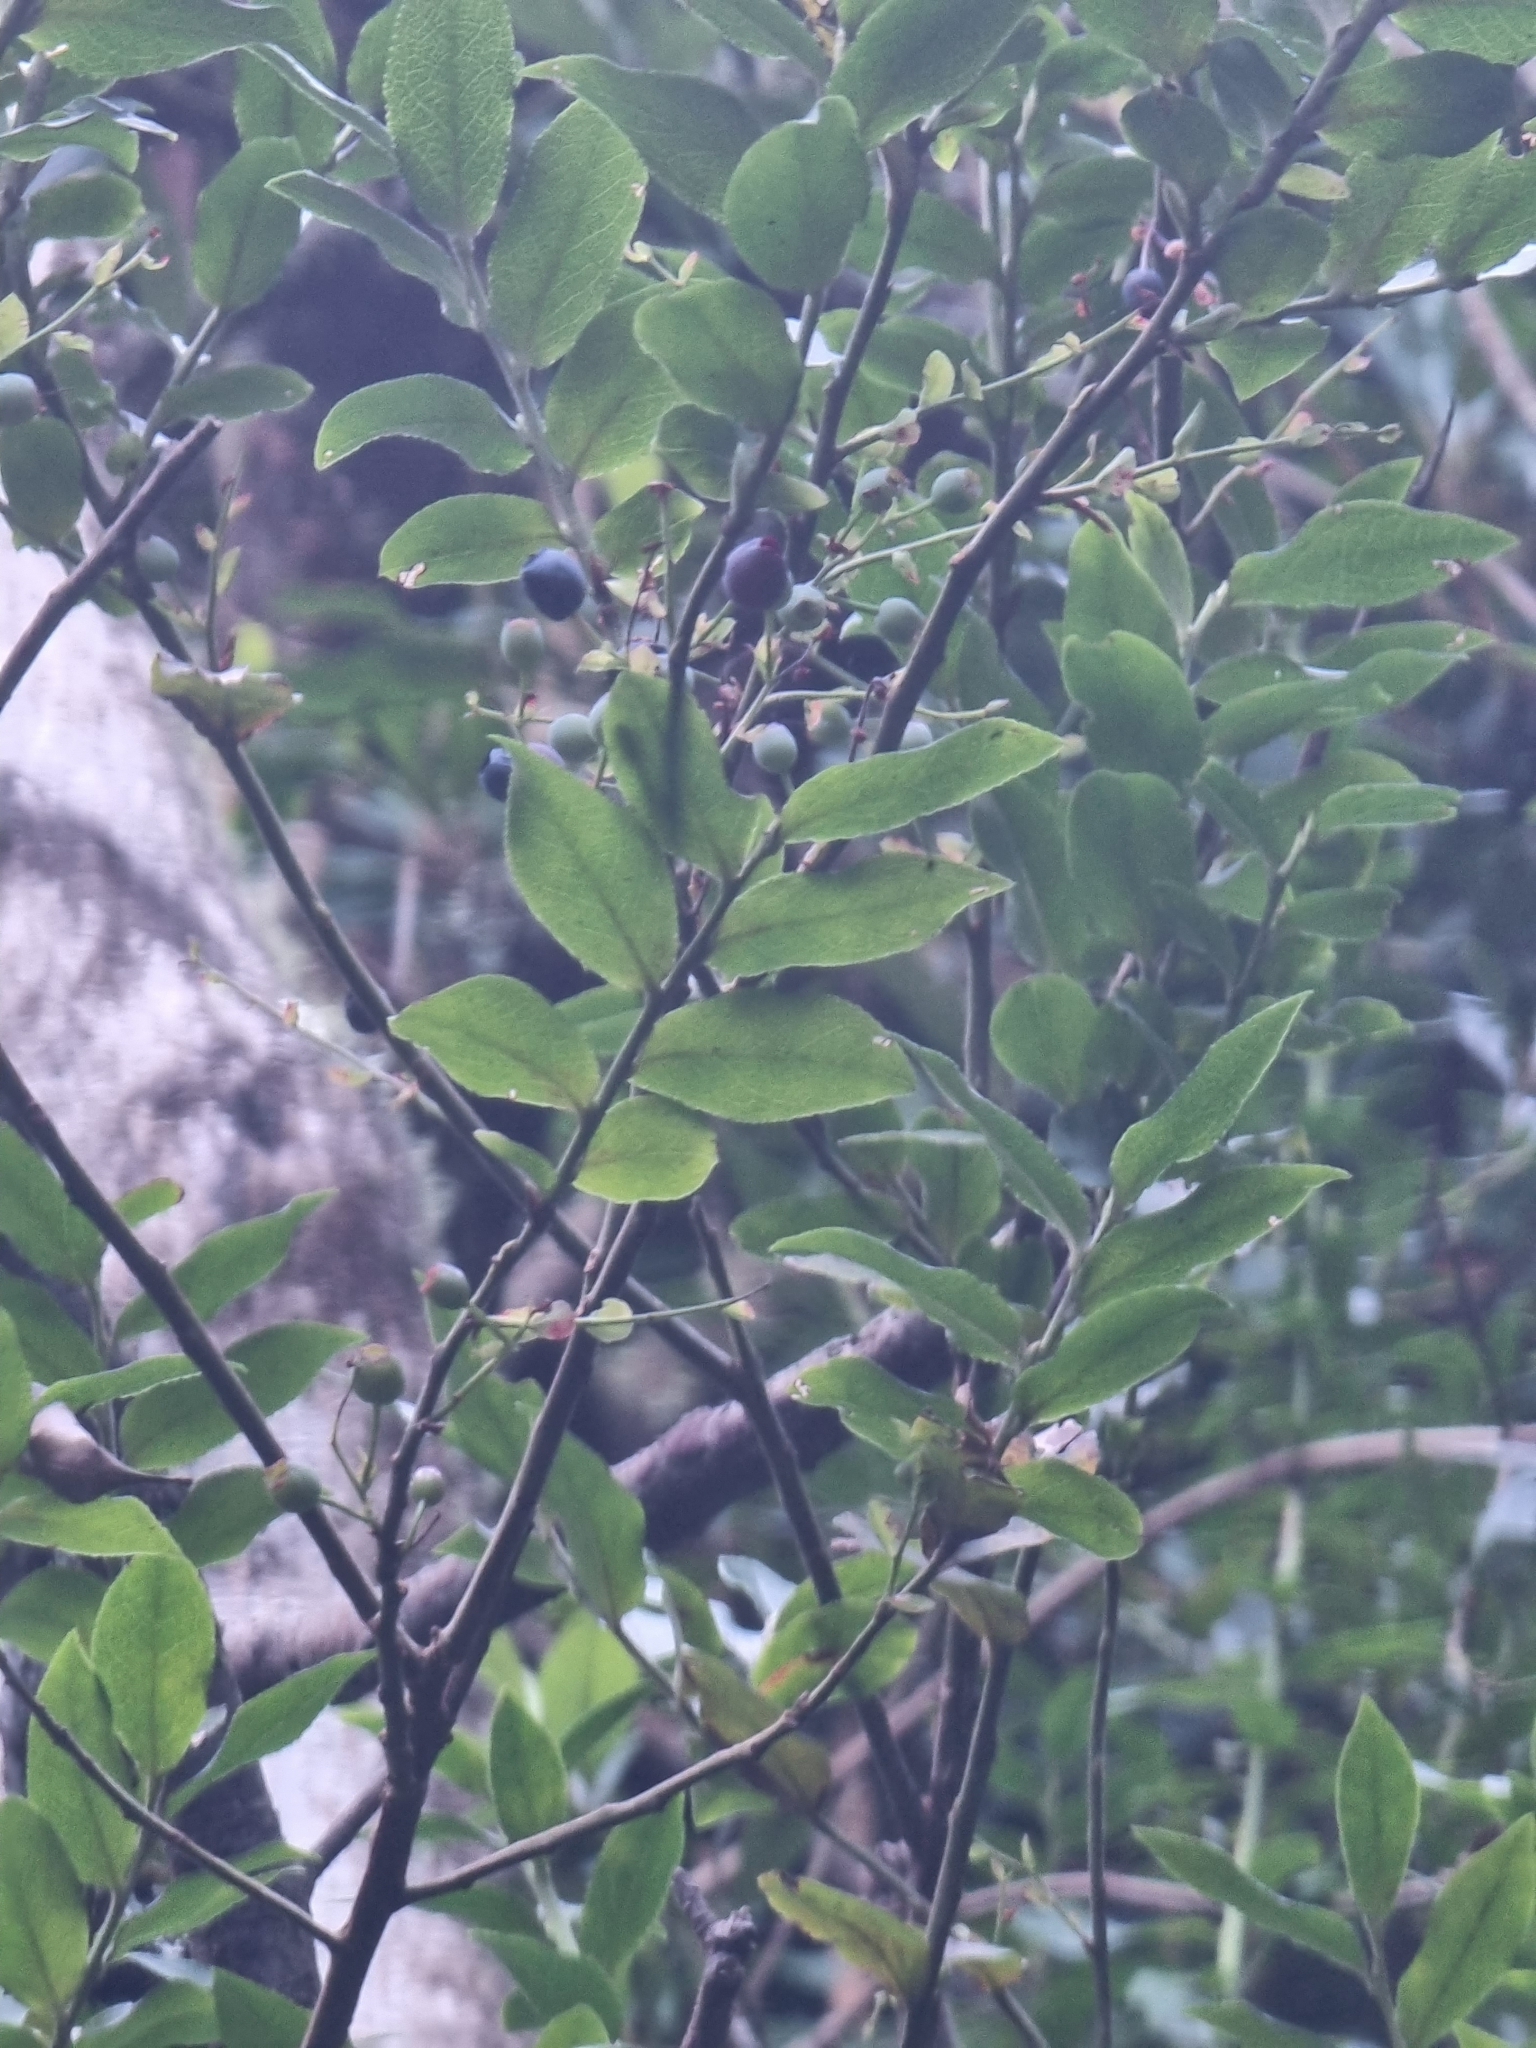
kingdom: Plantae
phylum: Tracheophyta
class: Magnoliopsida
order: Ericales
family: Ericaceae
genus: Vaccinium
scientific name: Vaccinium padifolium
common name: Madeiran blueberry
